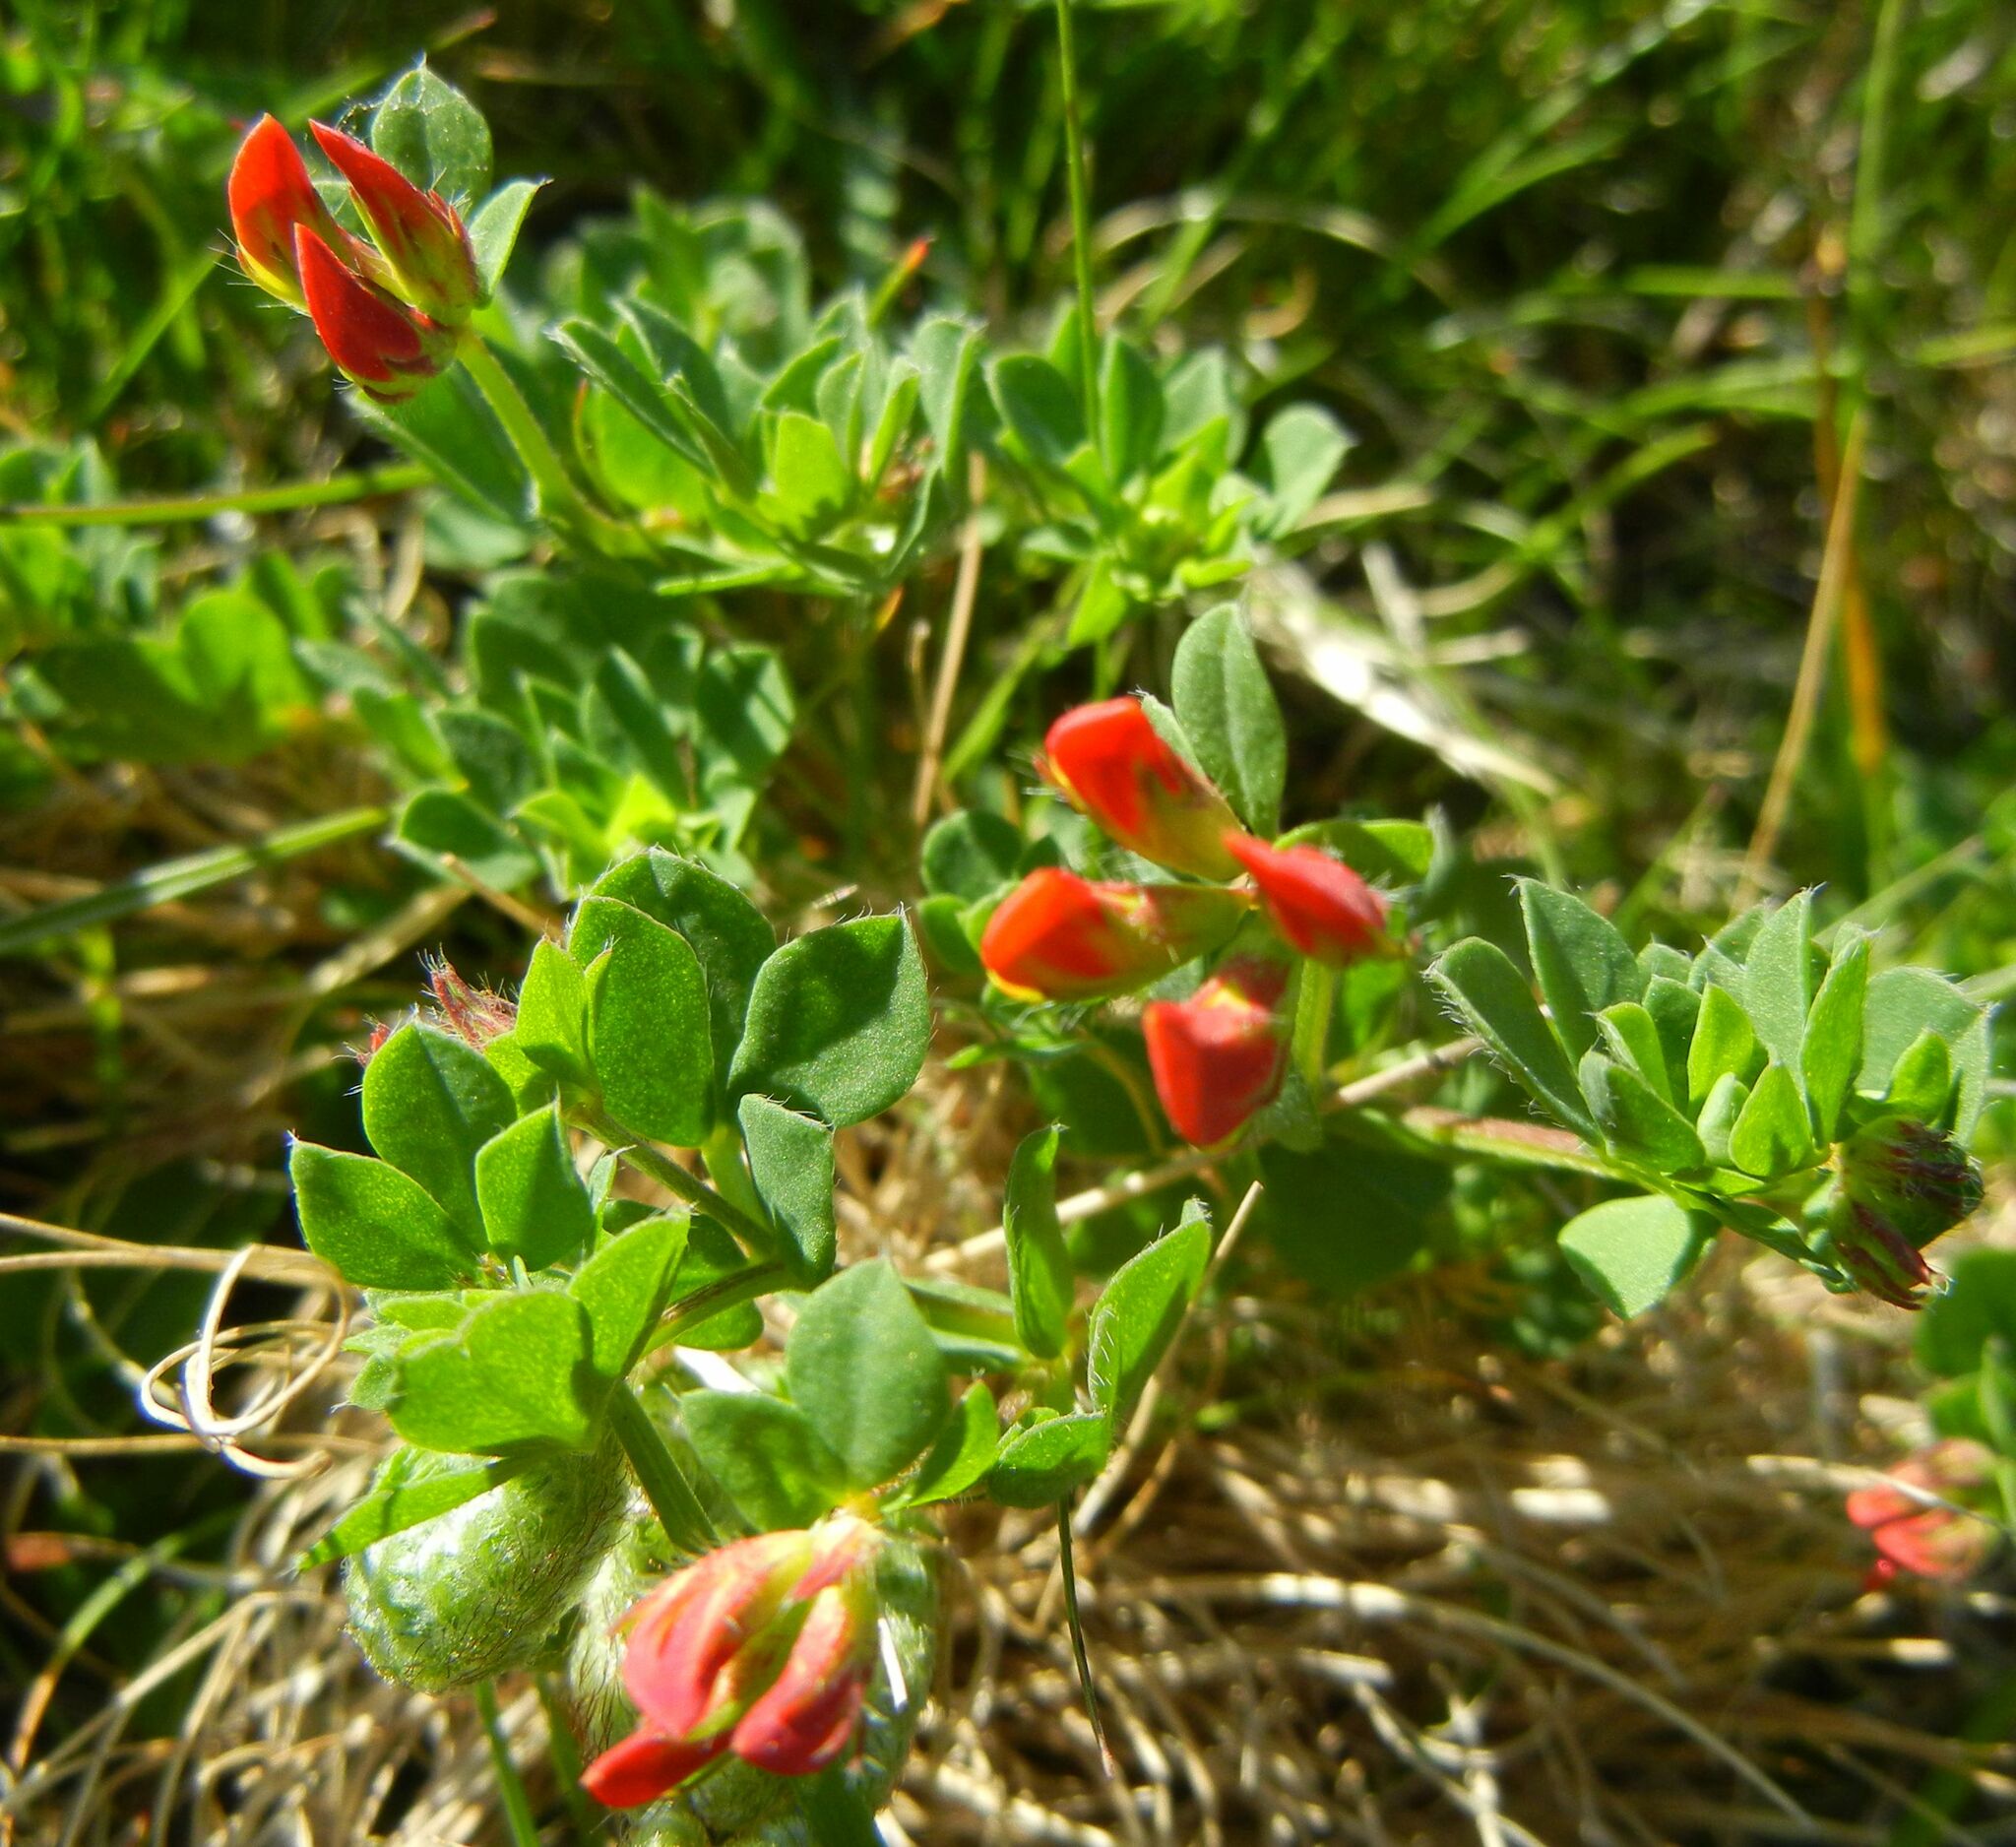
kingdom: Plantae
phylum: Tracheophyta
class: Magnoliopsida
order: Fabales
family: Fabaceae
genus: Lotus
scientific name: Lotus corniculatus
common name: Common bird's-foot-trefoil
